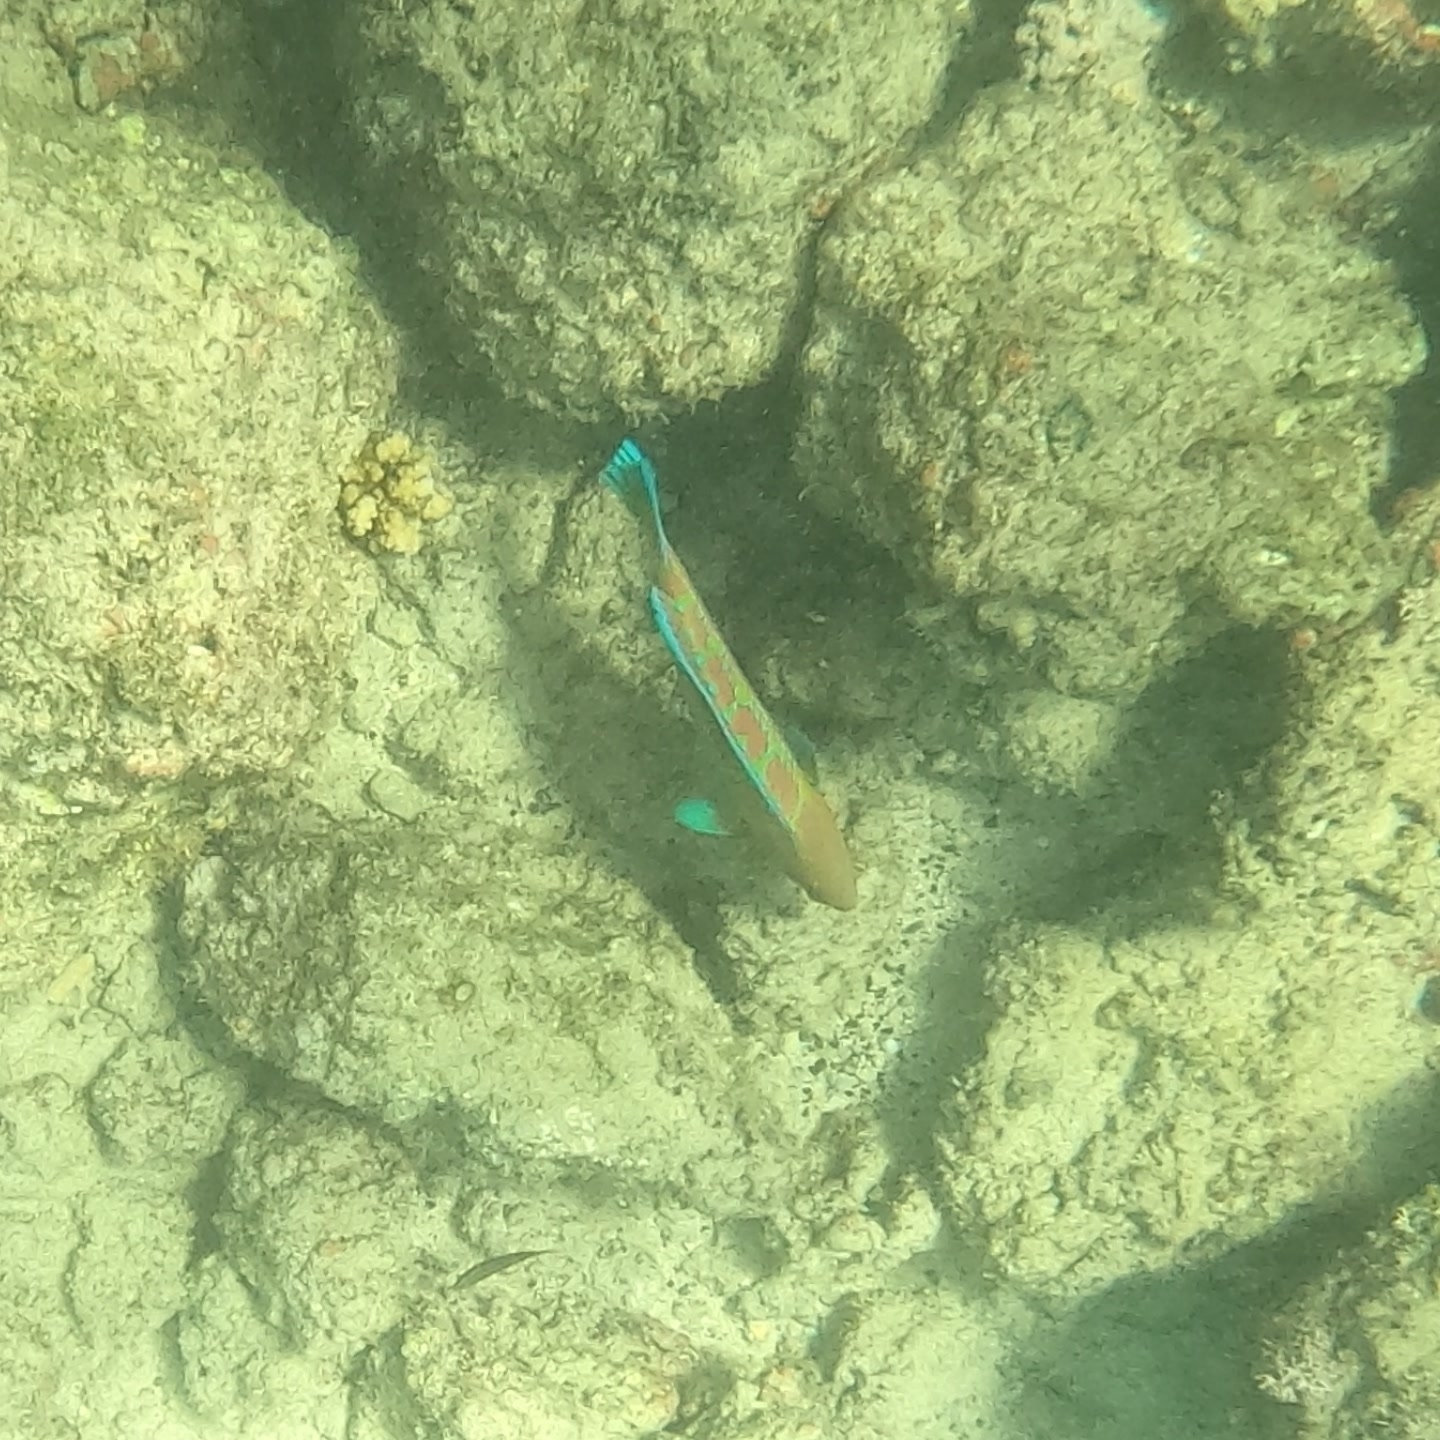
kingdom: Animalia
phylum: Chordata
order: Perciformes
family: Labridae
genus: Thalassoma
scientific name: Thalassoma trilobatum
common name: Christmas wrasse
